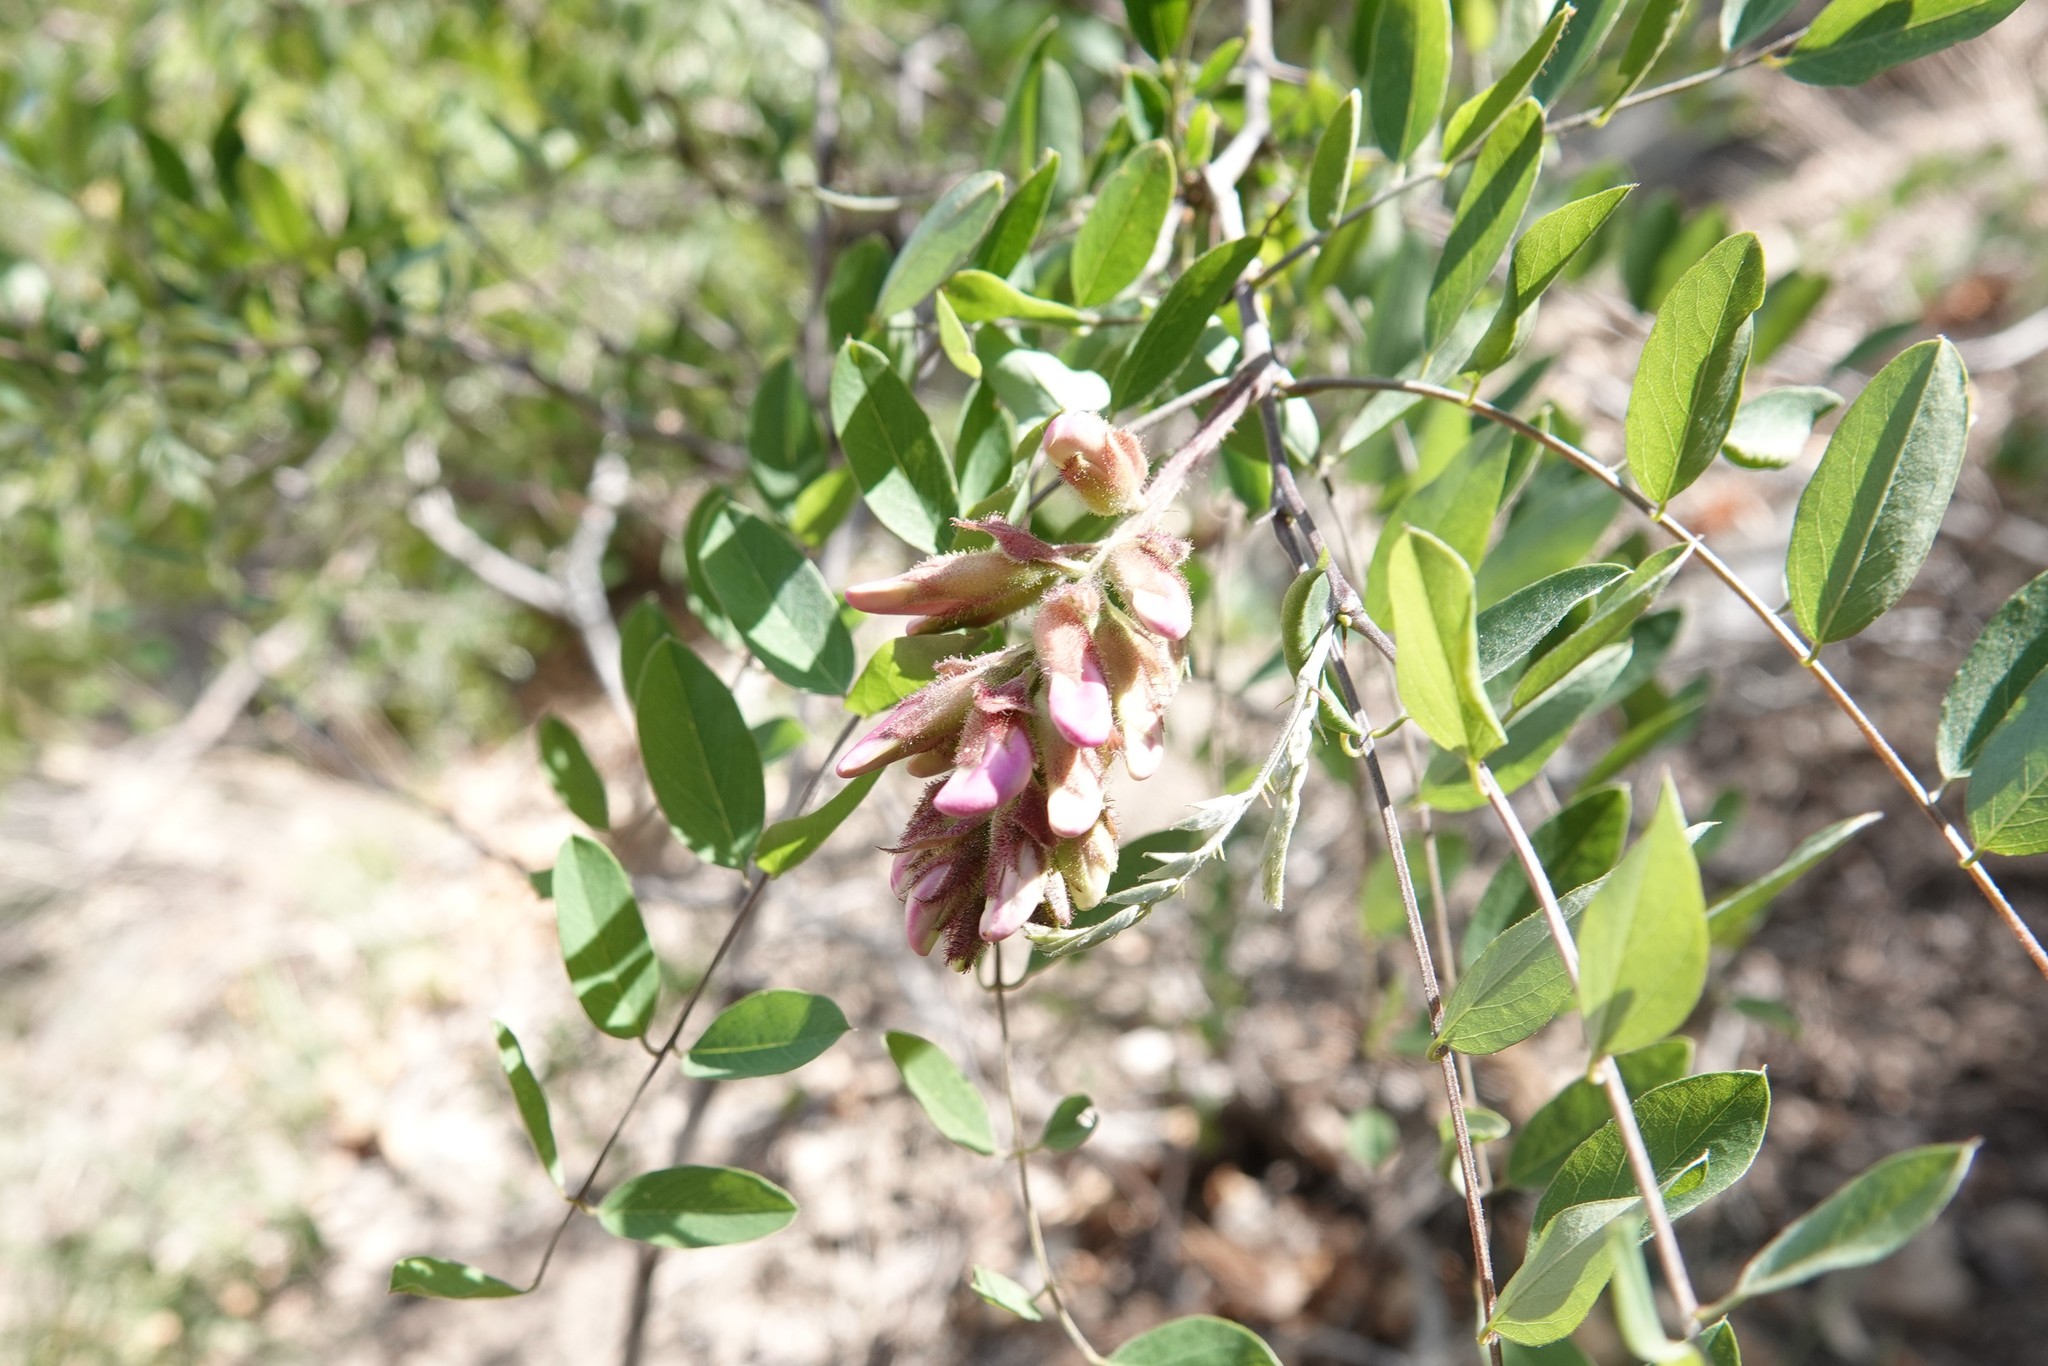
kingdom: Plantae
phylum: Tracheophyta
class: Magnoliopsida
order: Fabales
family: Fabaceae
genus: Robinia
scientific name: Robinia neomexicana
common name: New mexico locust
